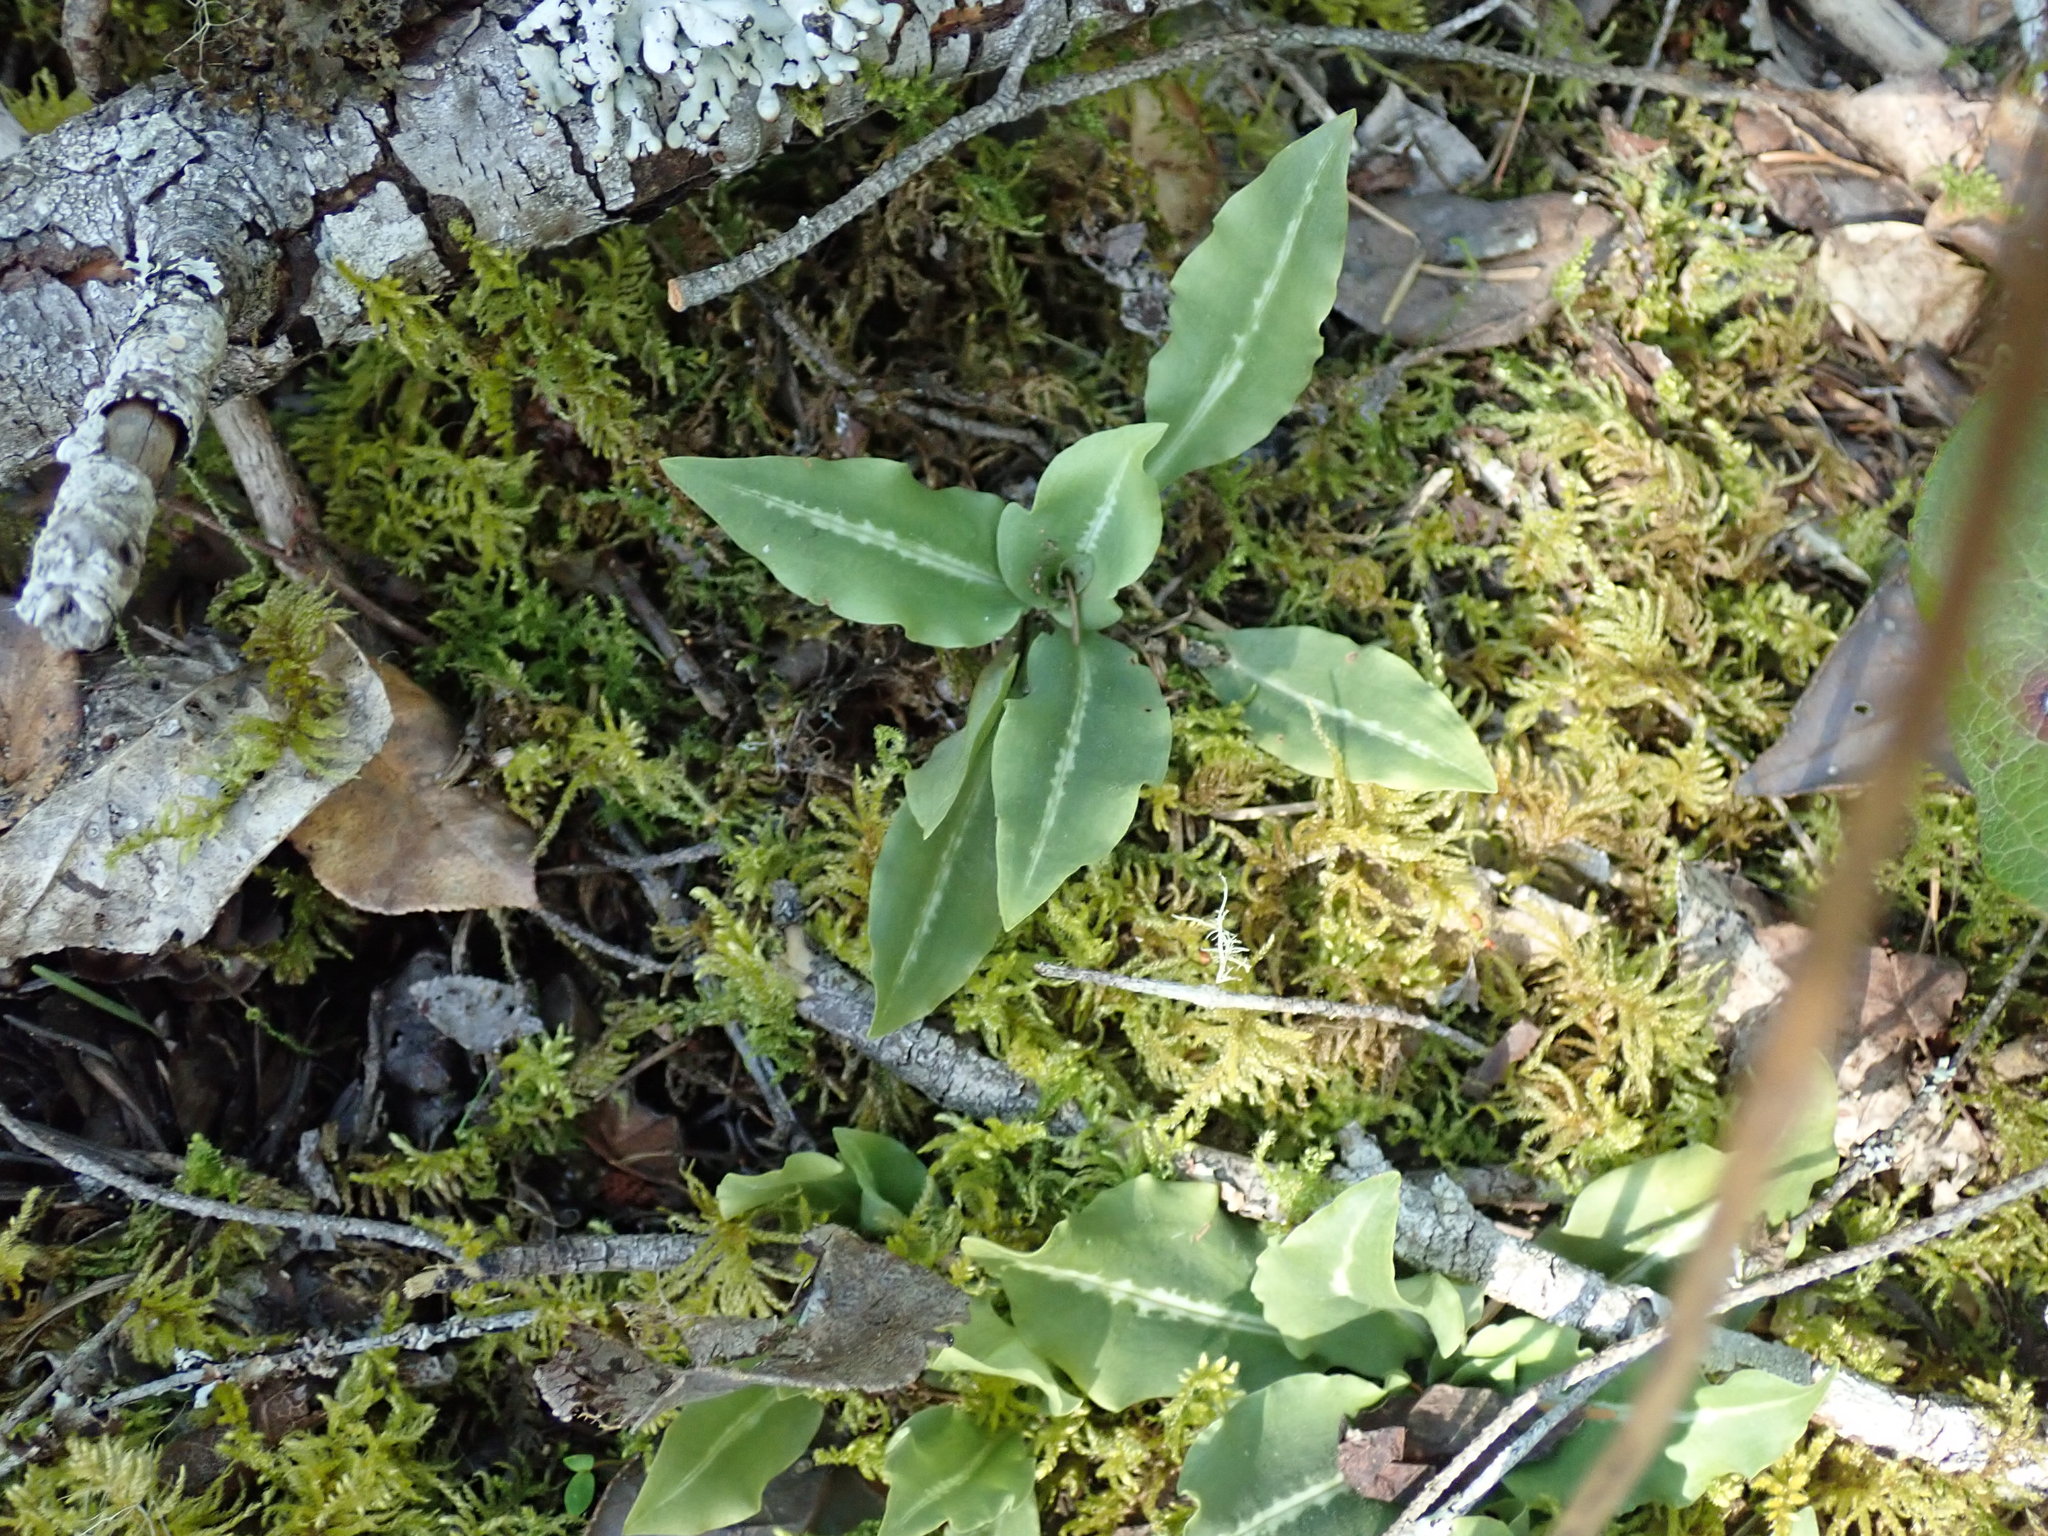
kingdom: Plantae
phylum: Tracheophyta
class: Liliopsida
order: Asparagales
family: Orchidaceae
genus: Goodyera
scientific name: Goodyera oblongifolia
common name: Giant rattlesnake-plantain
